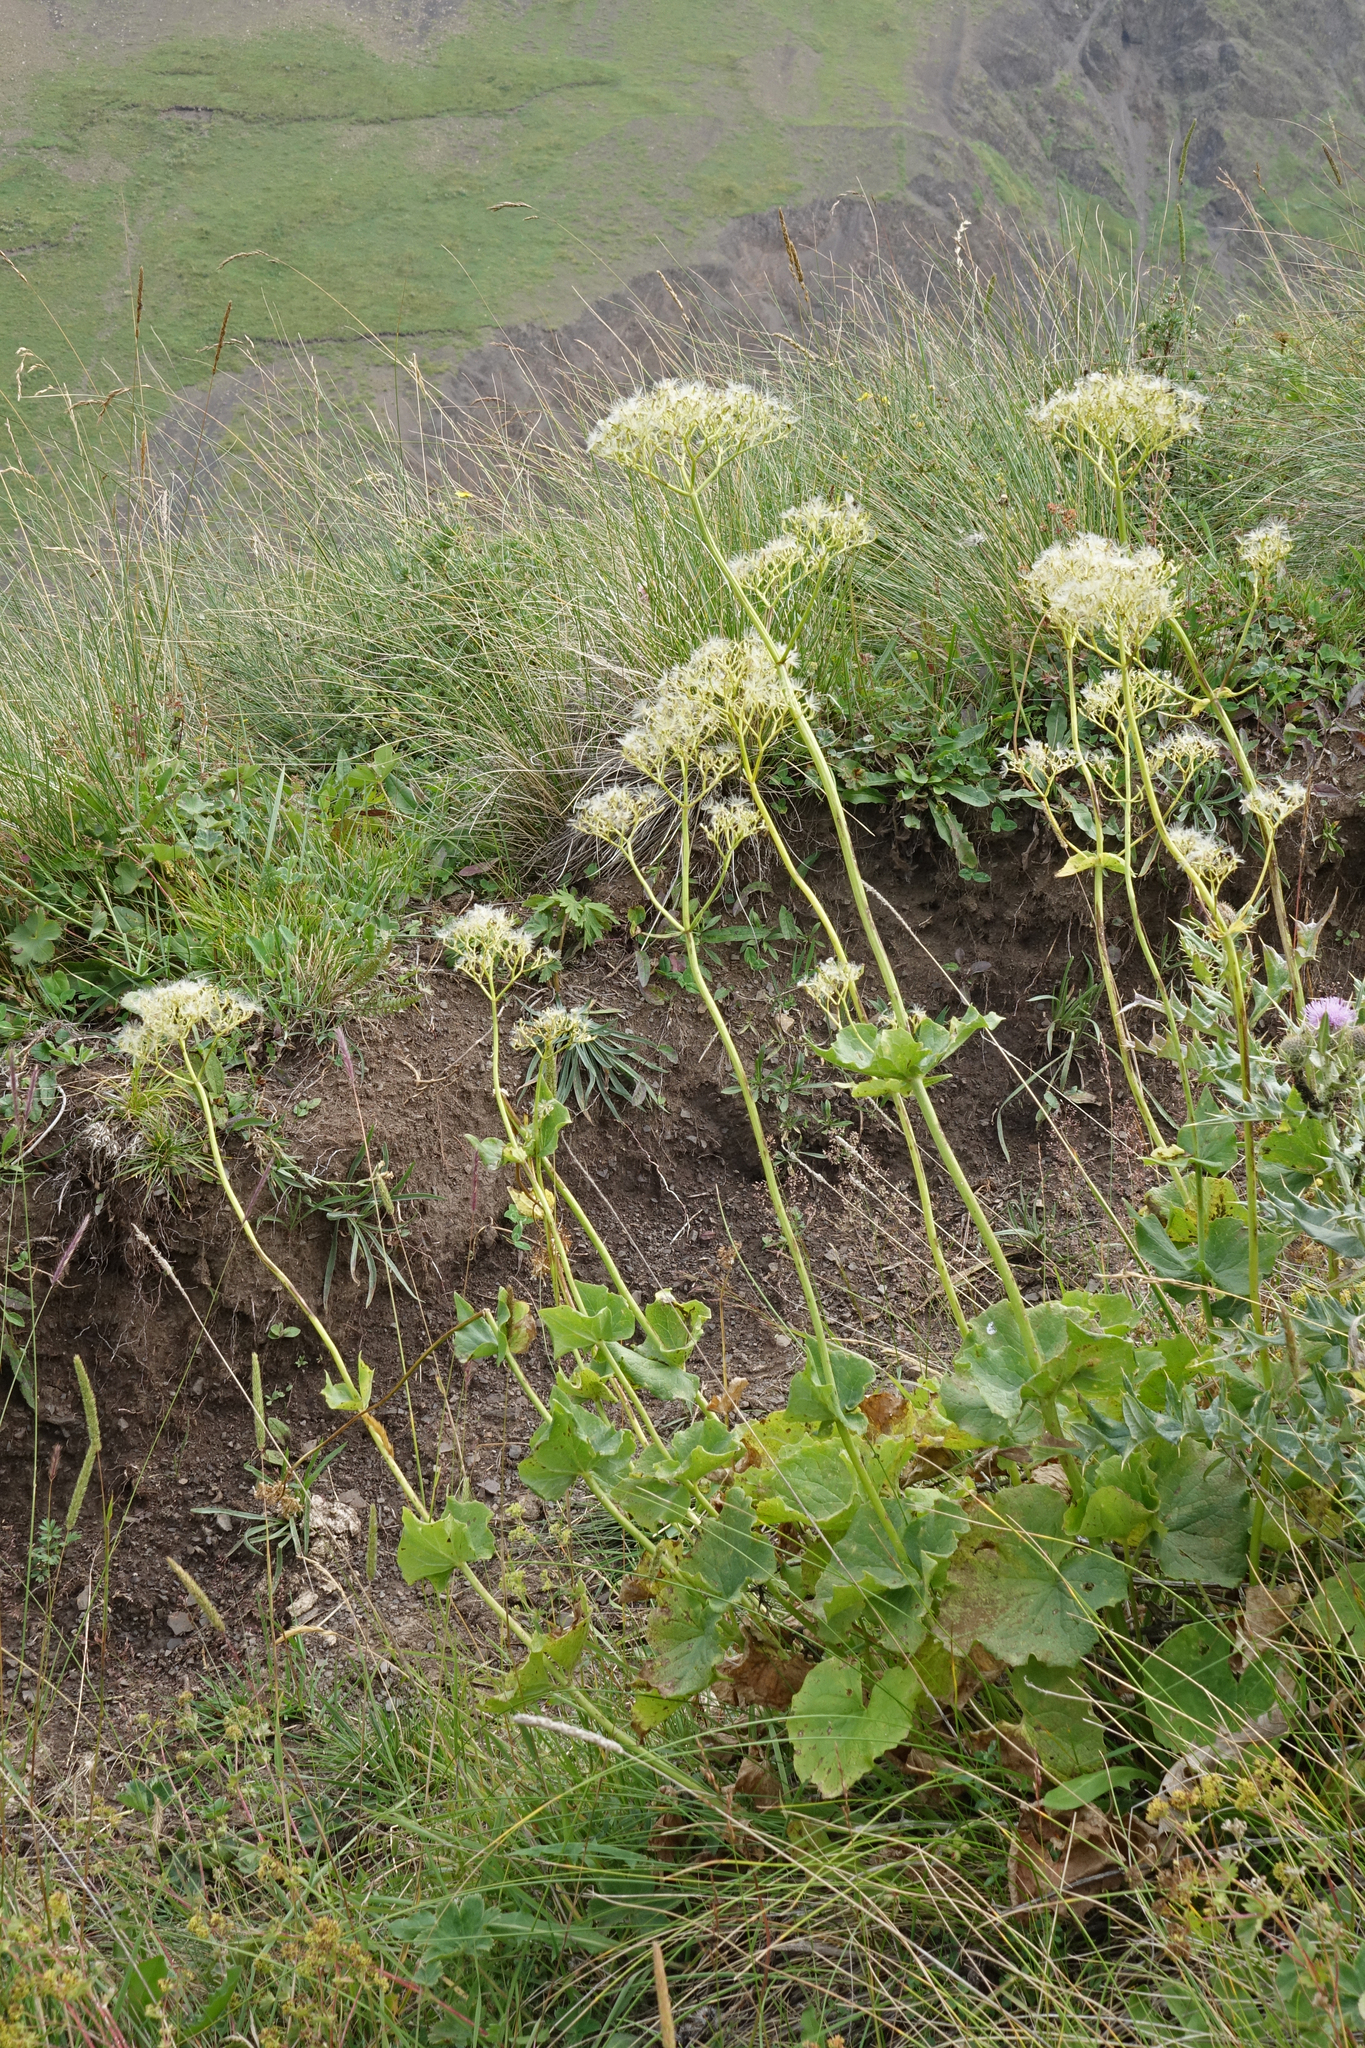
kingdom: Plantae
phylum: Tracheophyta
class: Magnoliopsida
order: Dipsacales
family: Caprifoliaceae
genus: Valeriana
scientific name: Valeriana alliariifolia
